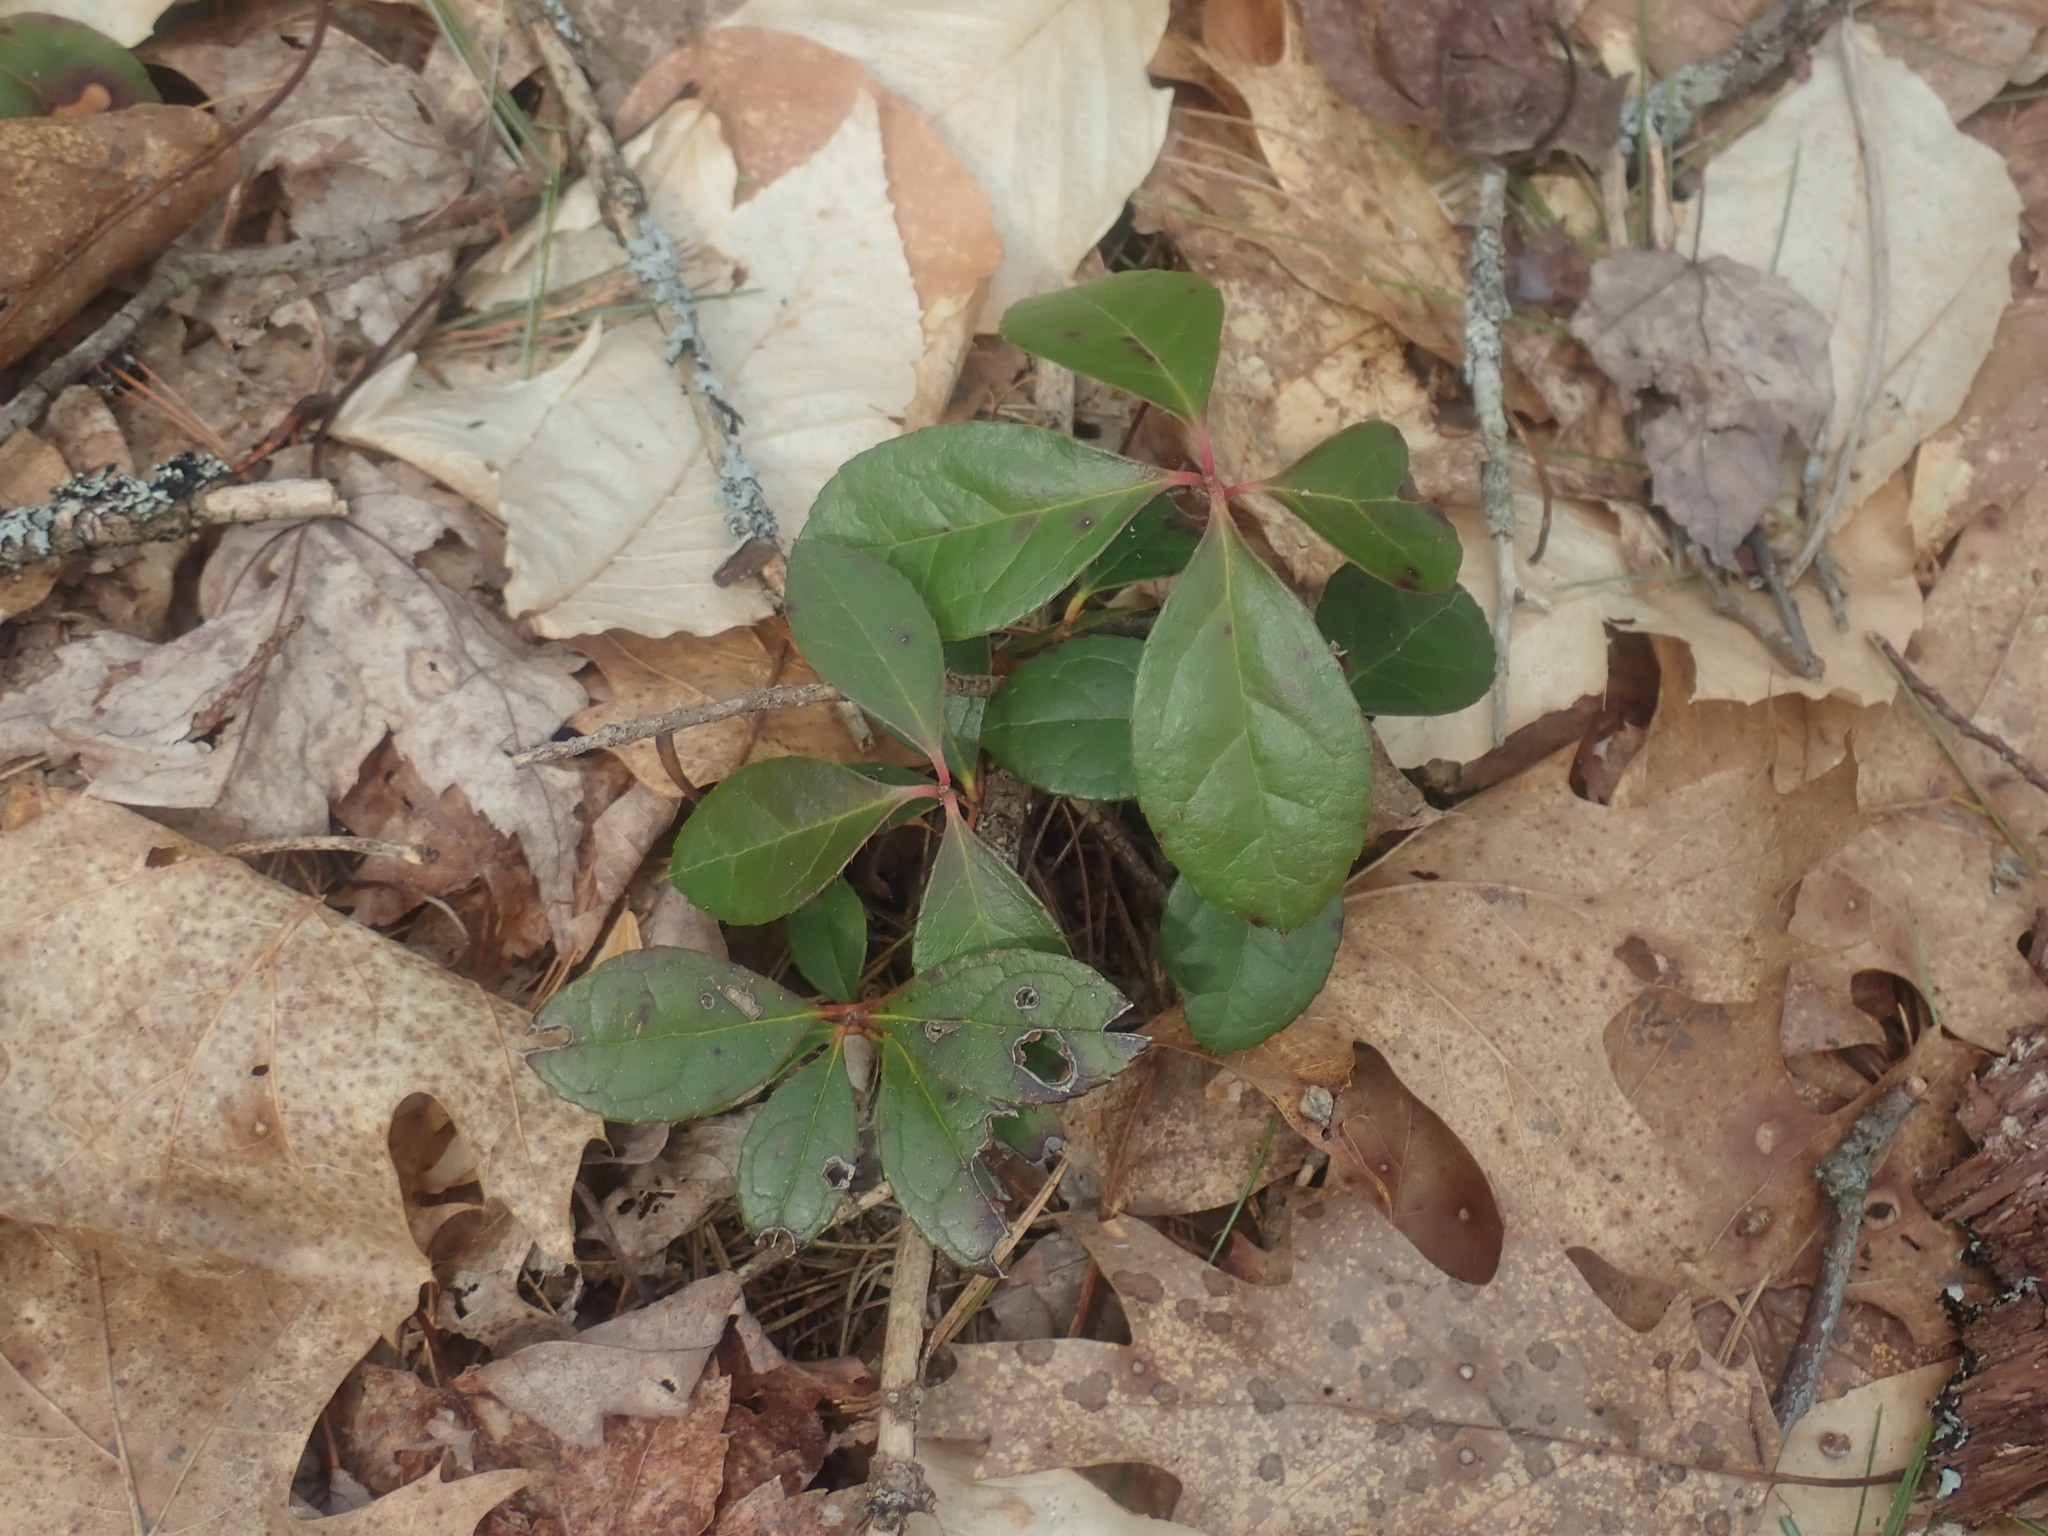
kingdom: Plantae
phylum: Tracheophyta
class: Magnoliopsida
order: Ericales
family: Ericaceae
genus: Gaultheria
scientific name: Gaultheria procumbens
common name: Checkerberry
